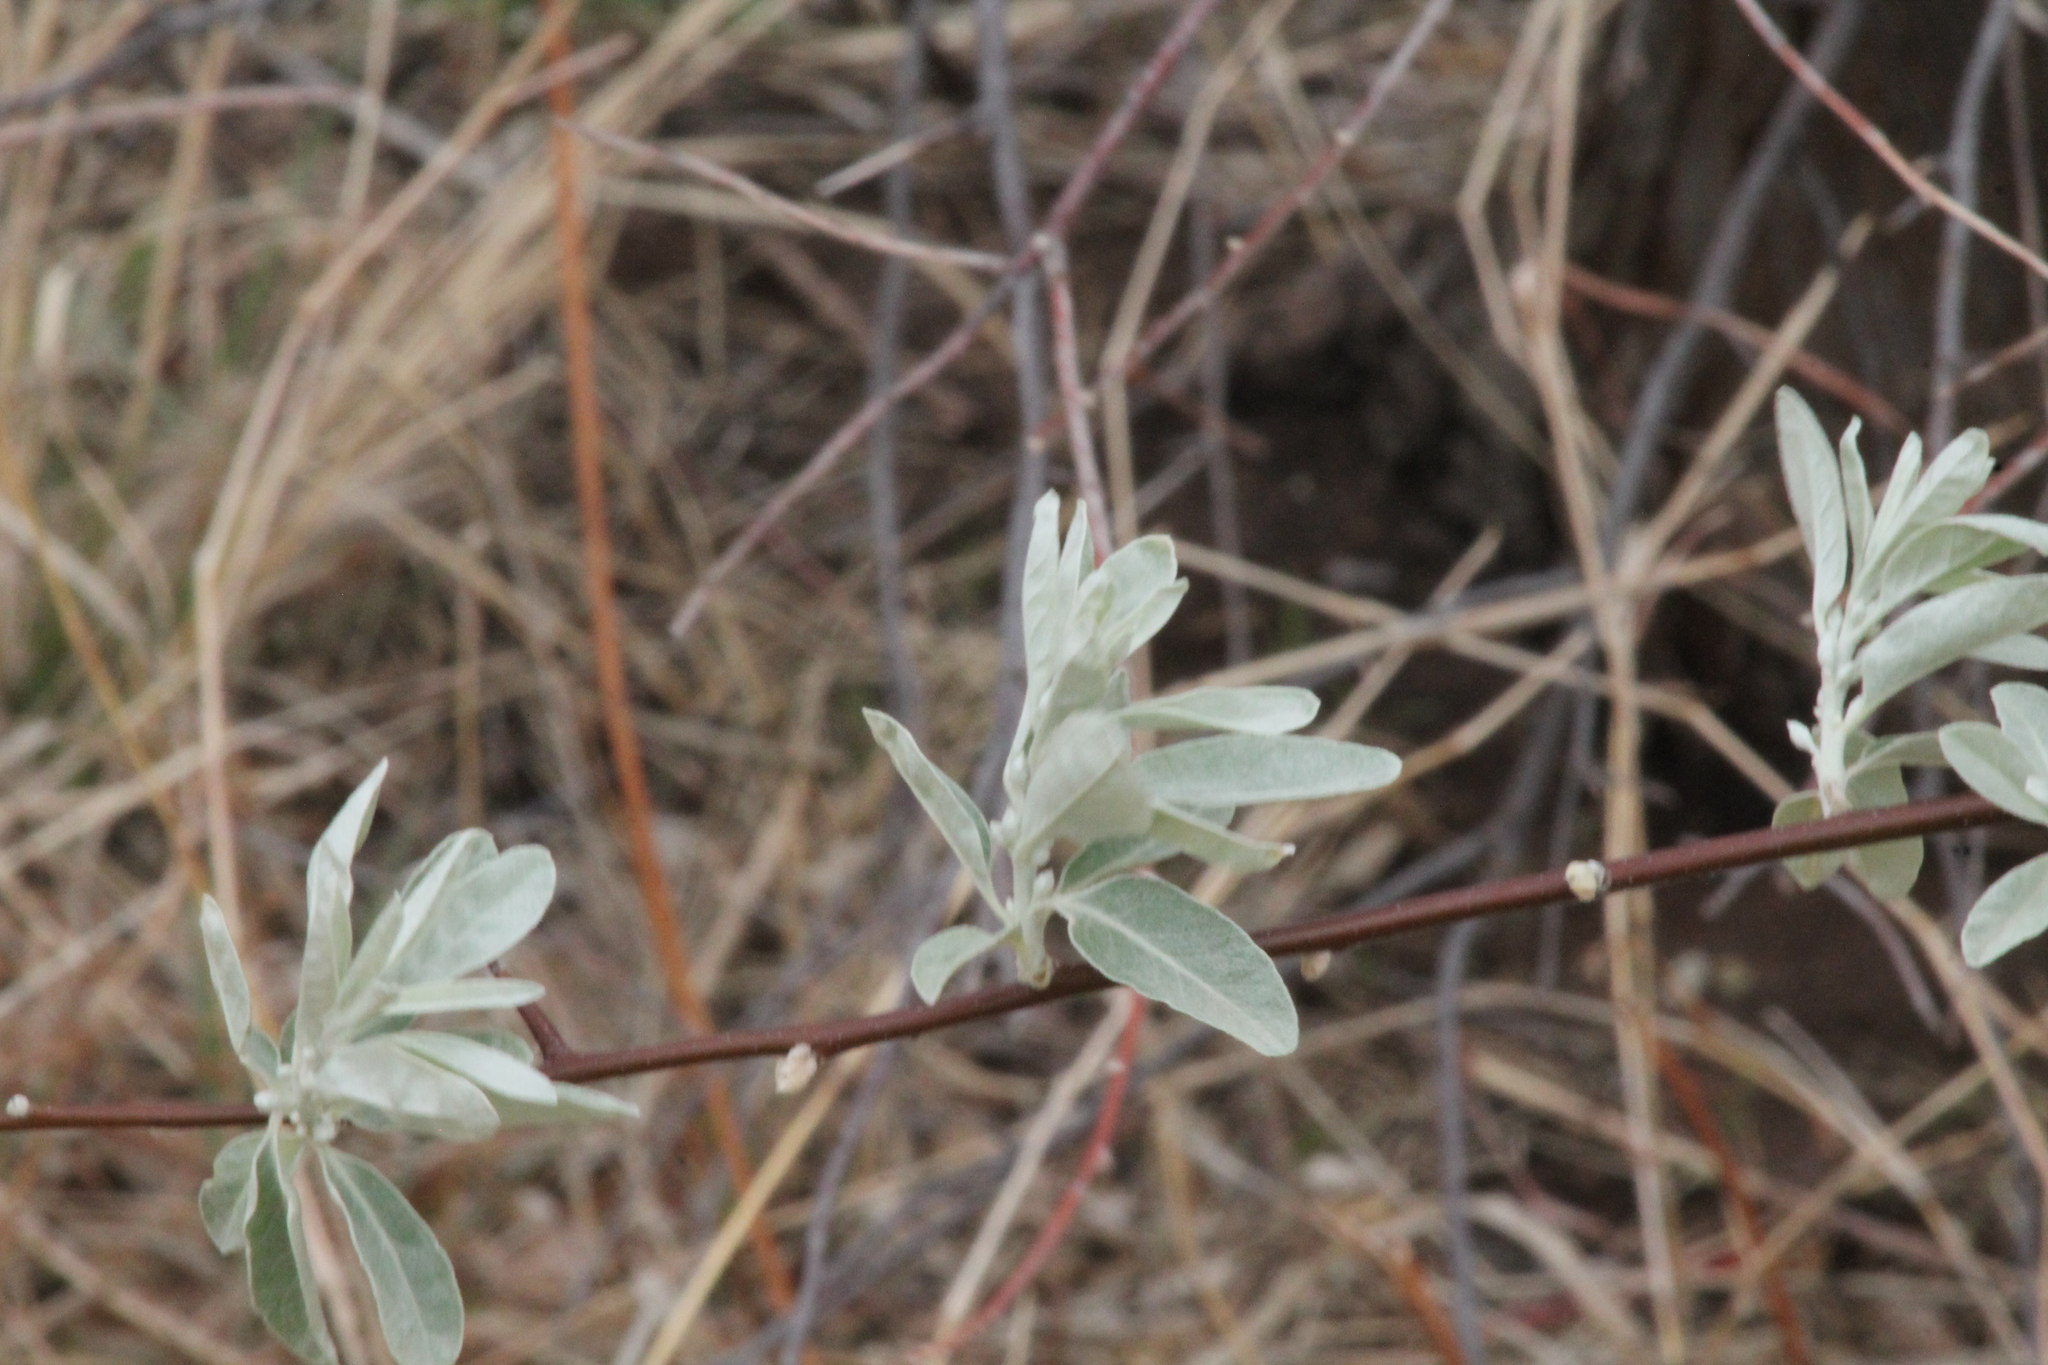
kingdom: Plantae
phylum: Tracheophyta
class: Magnoliopsida
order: Rosales
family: Elaeagnaceae
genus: Elaeagnus
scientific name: Elaeagnus angustifolia
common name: Russian olive
